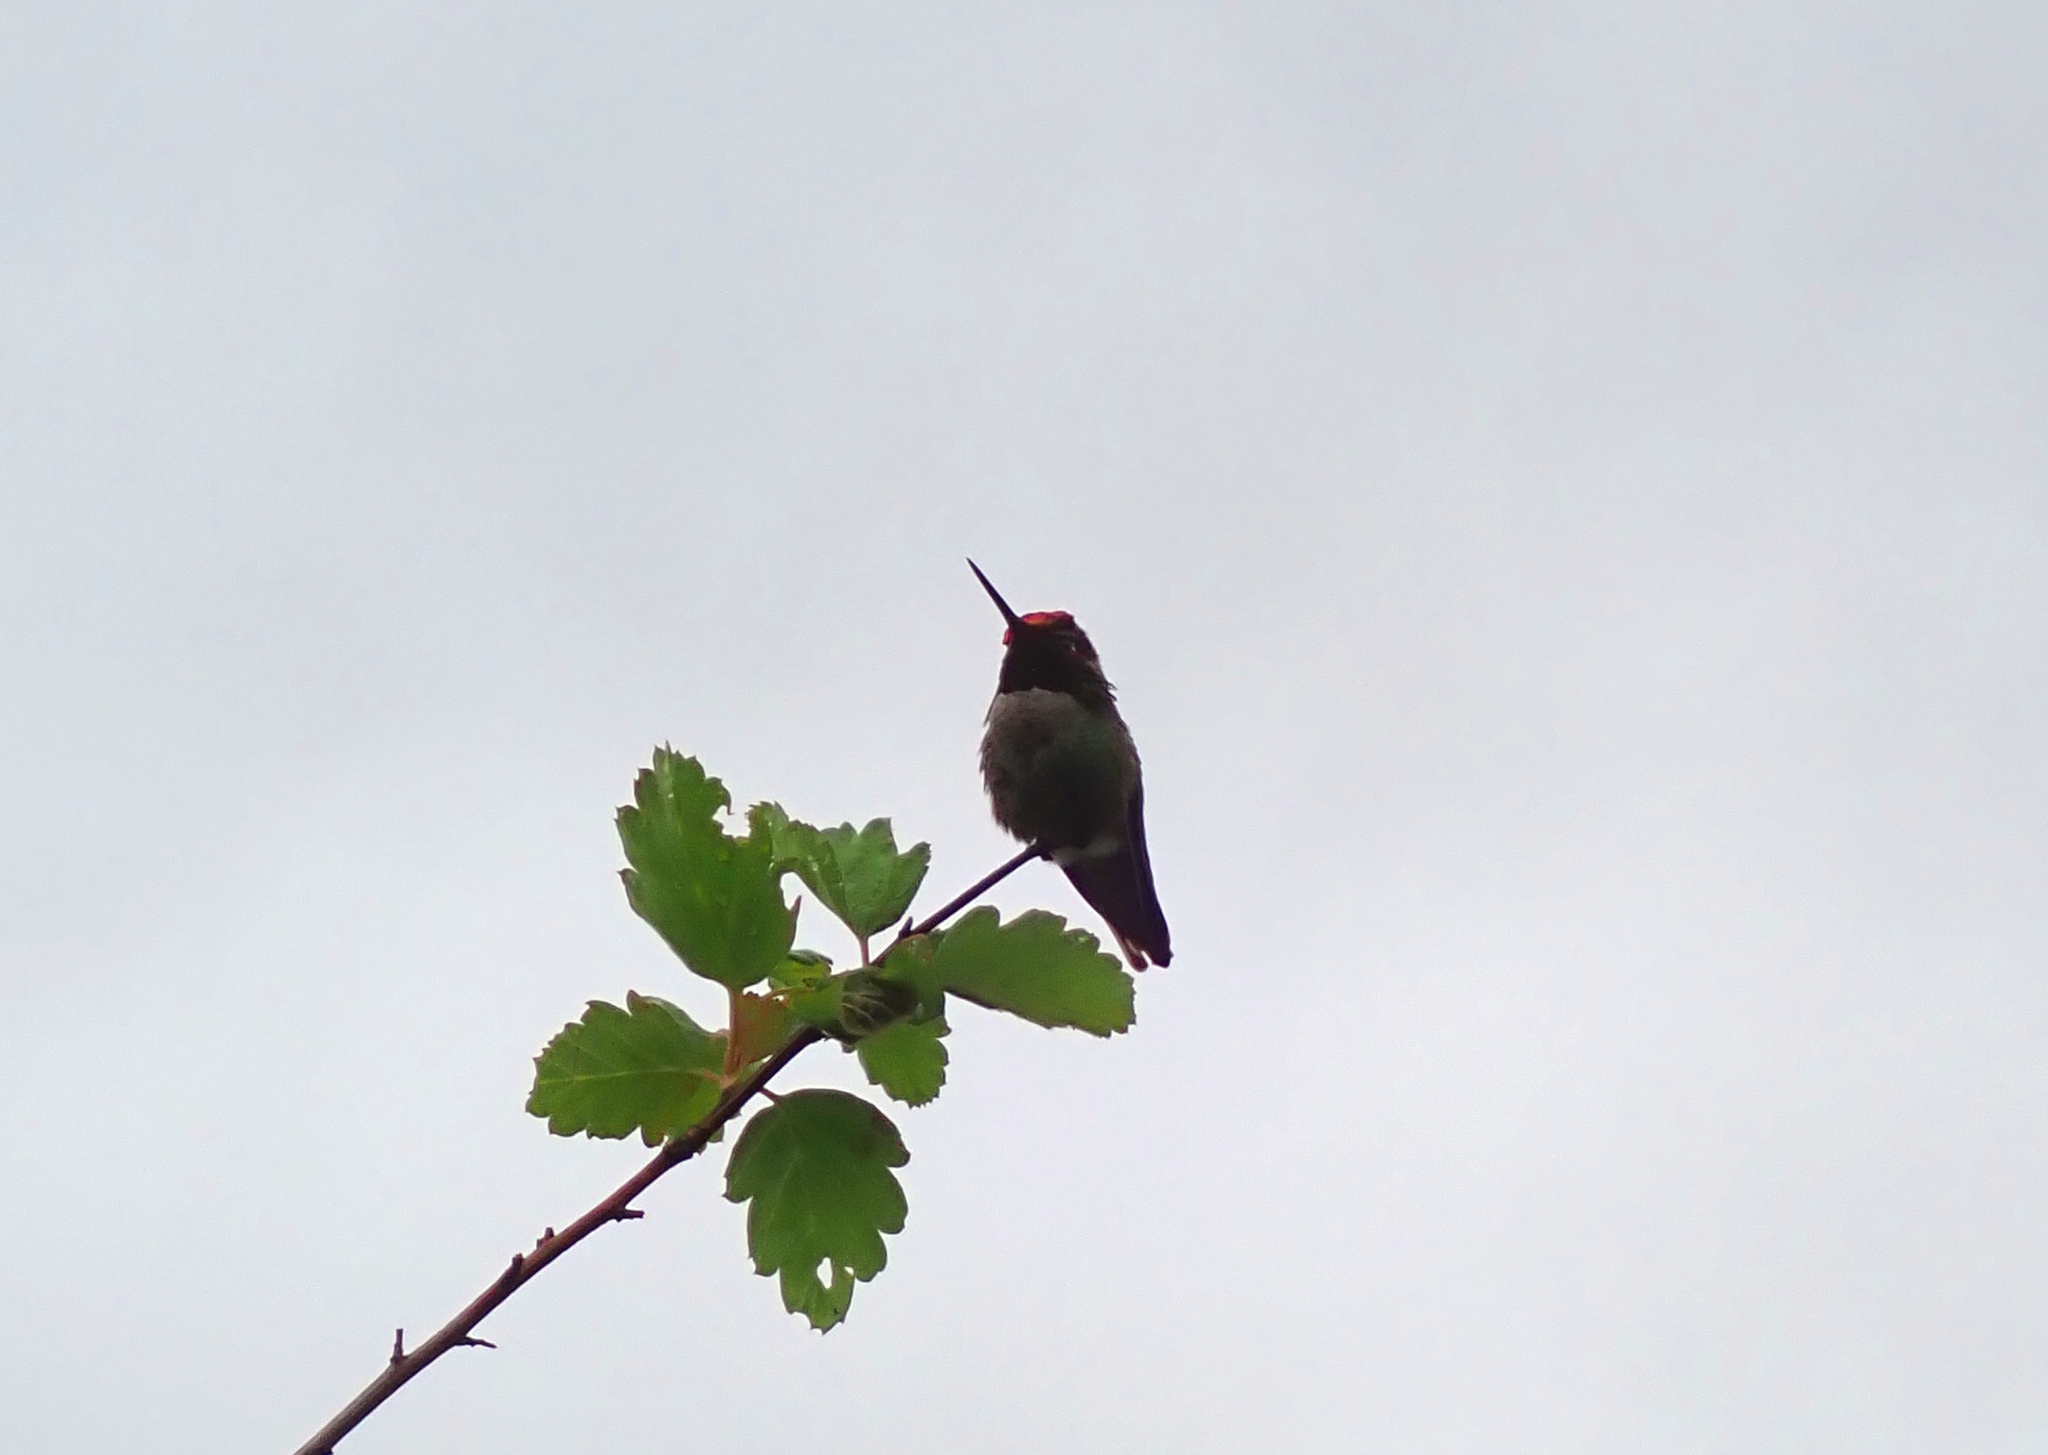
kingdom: Animalia
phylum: Chordata
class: Aves
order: Apodiformes
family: Trochilidae
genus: Calypte
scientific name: Calypte anna
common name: Anna's hummingbird
